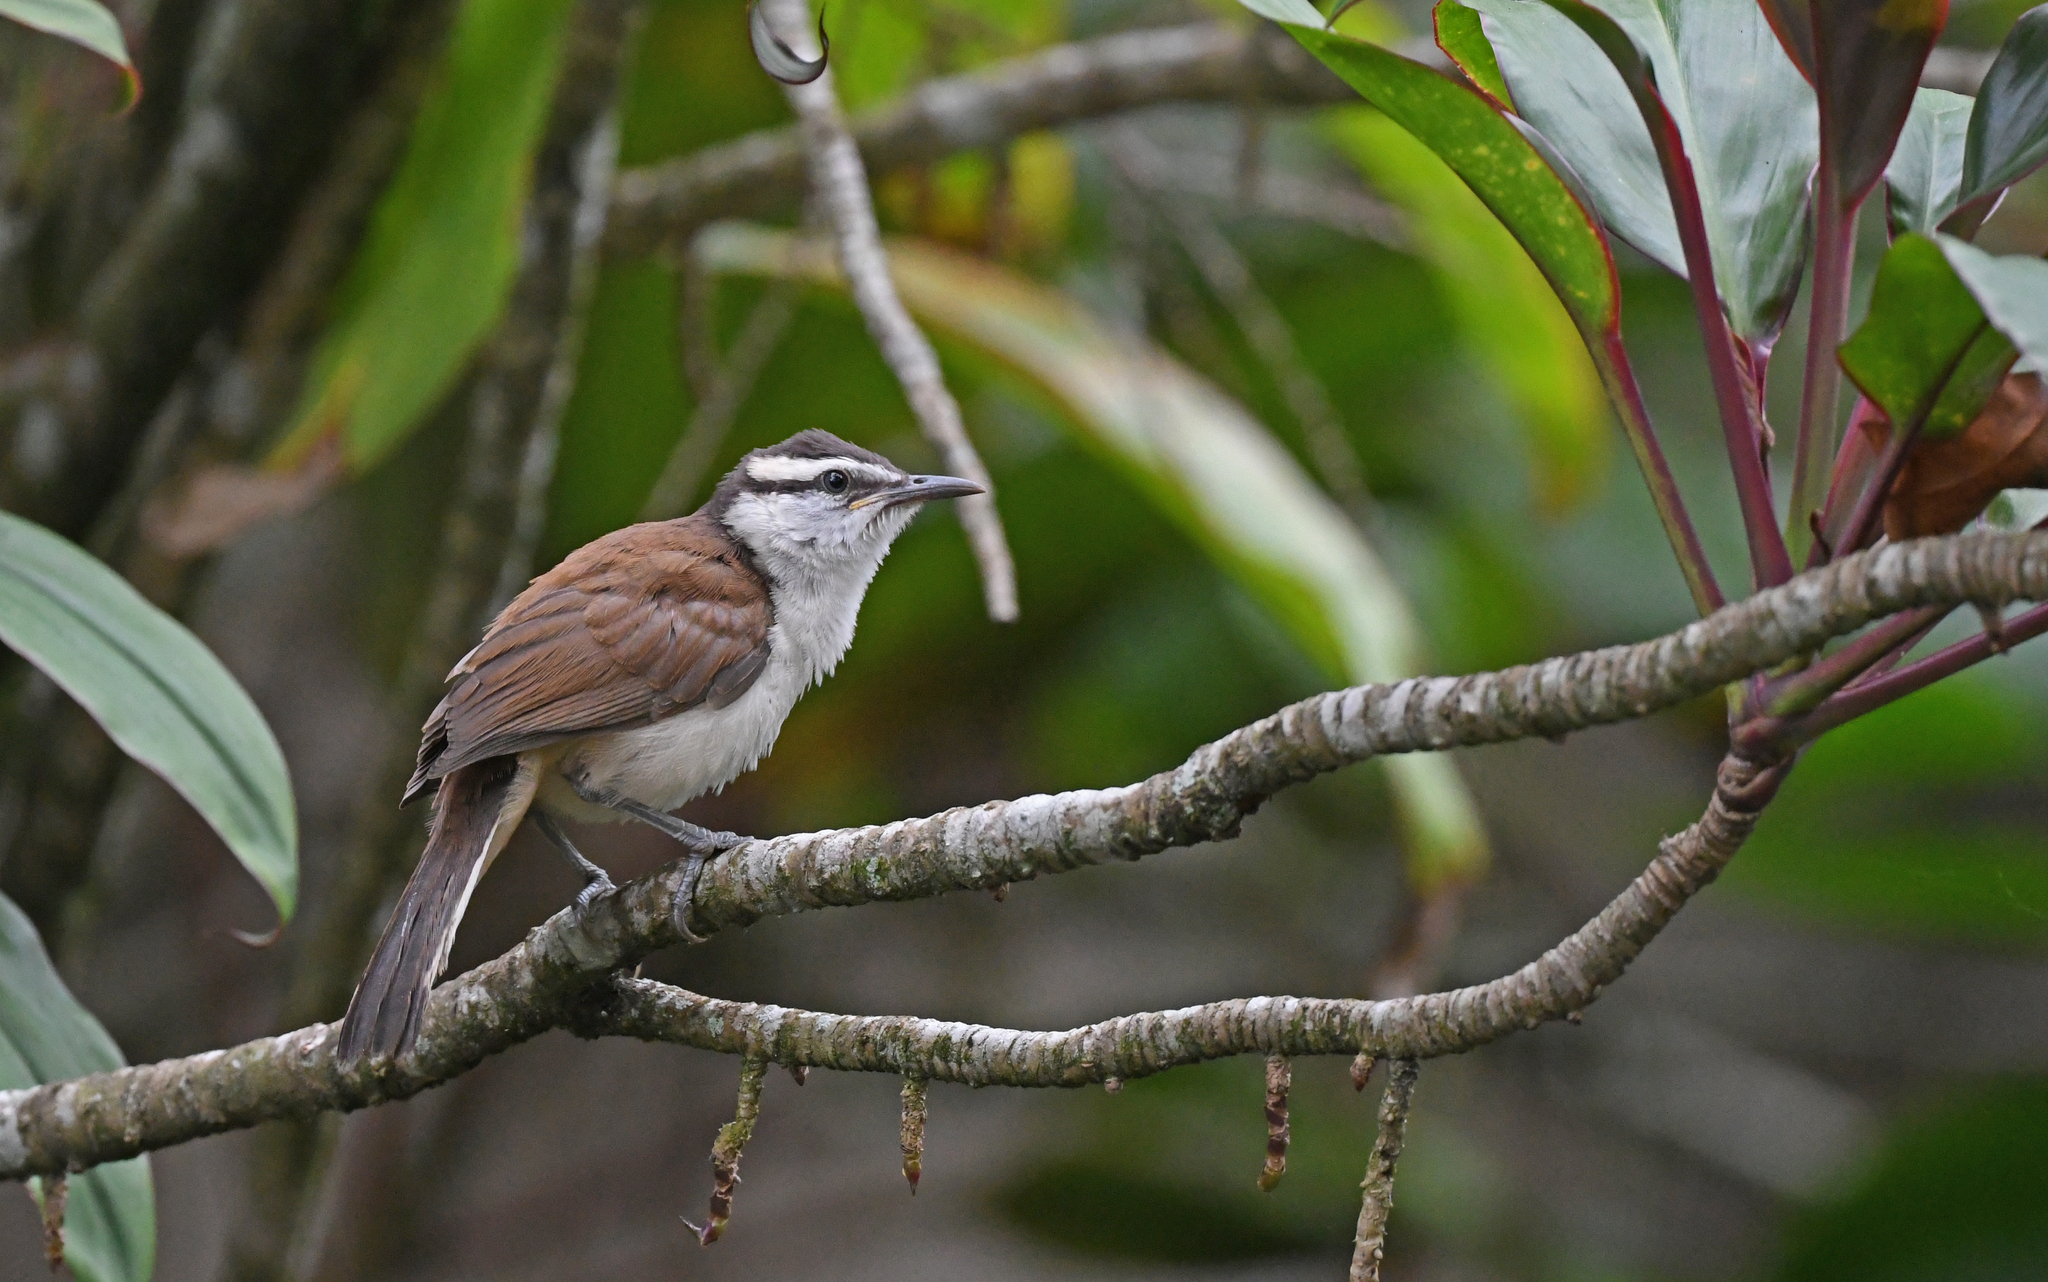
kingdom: Animalia
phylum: Chordata
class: Aves
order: Passeriformes
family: Troglodytidae
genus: Campylorhynchus
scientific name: Campylorhynchus griseus
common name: Bicolored wren
